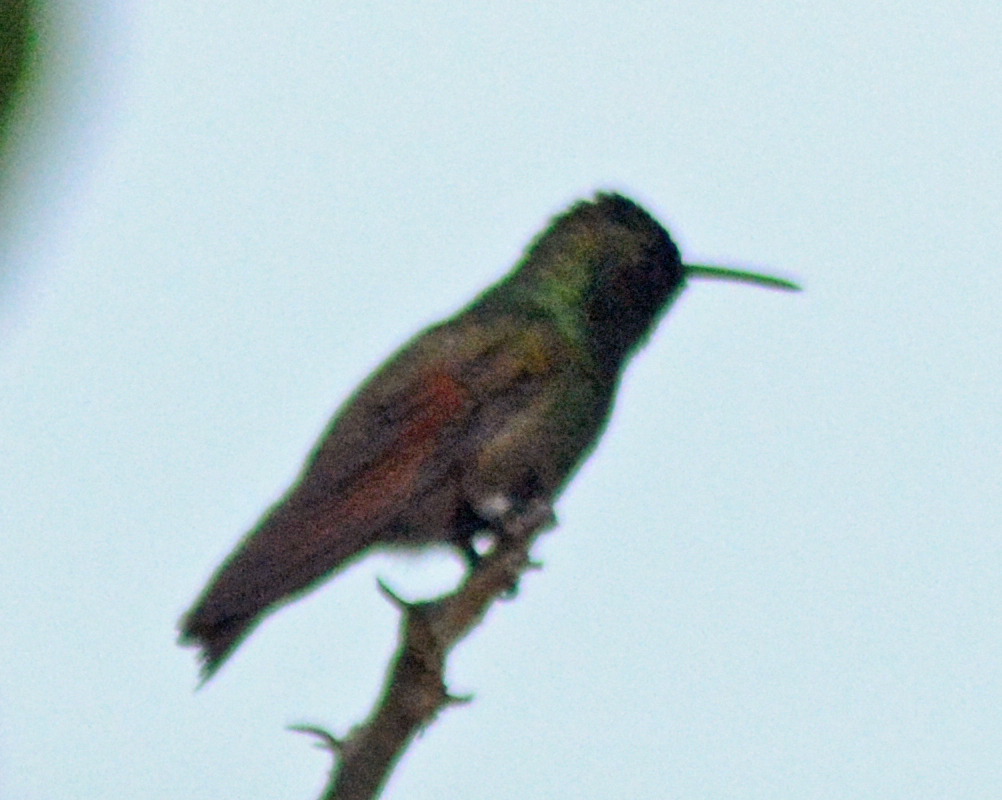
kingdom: Animalia
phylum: Chordata
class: Aves
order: Apodiformes
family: Trochilidae
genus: Saucerottia
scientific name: Saucerottia beryllina
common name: Berylline hummingbird
